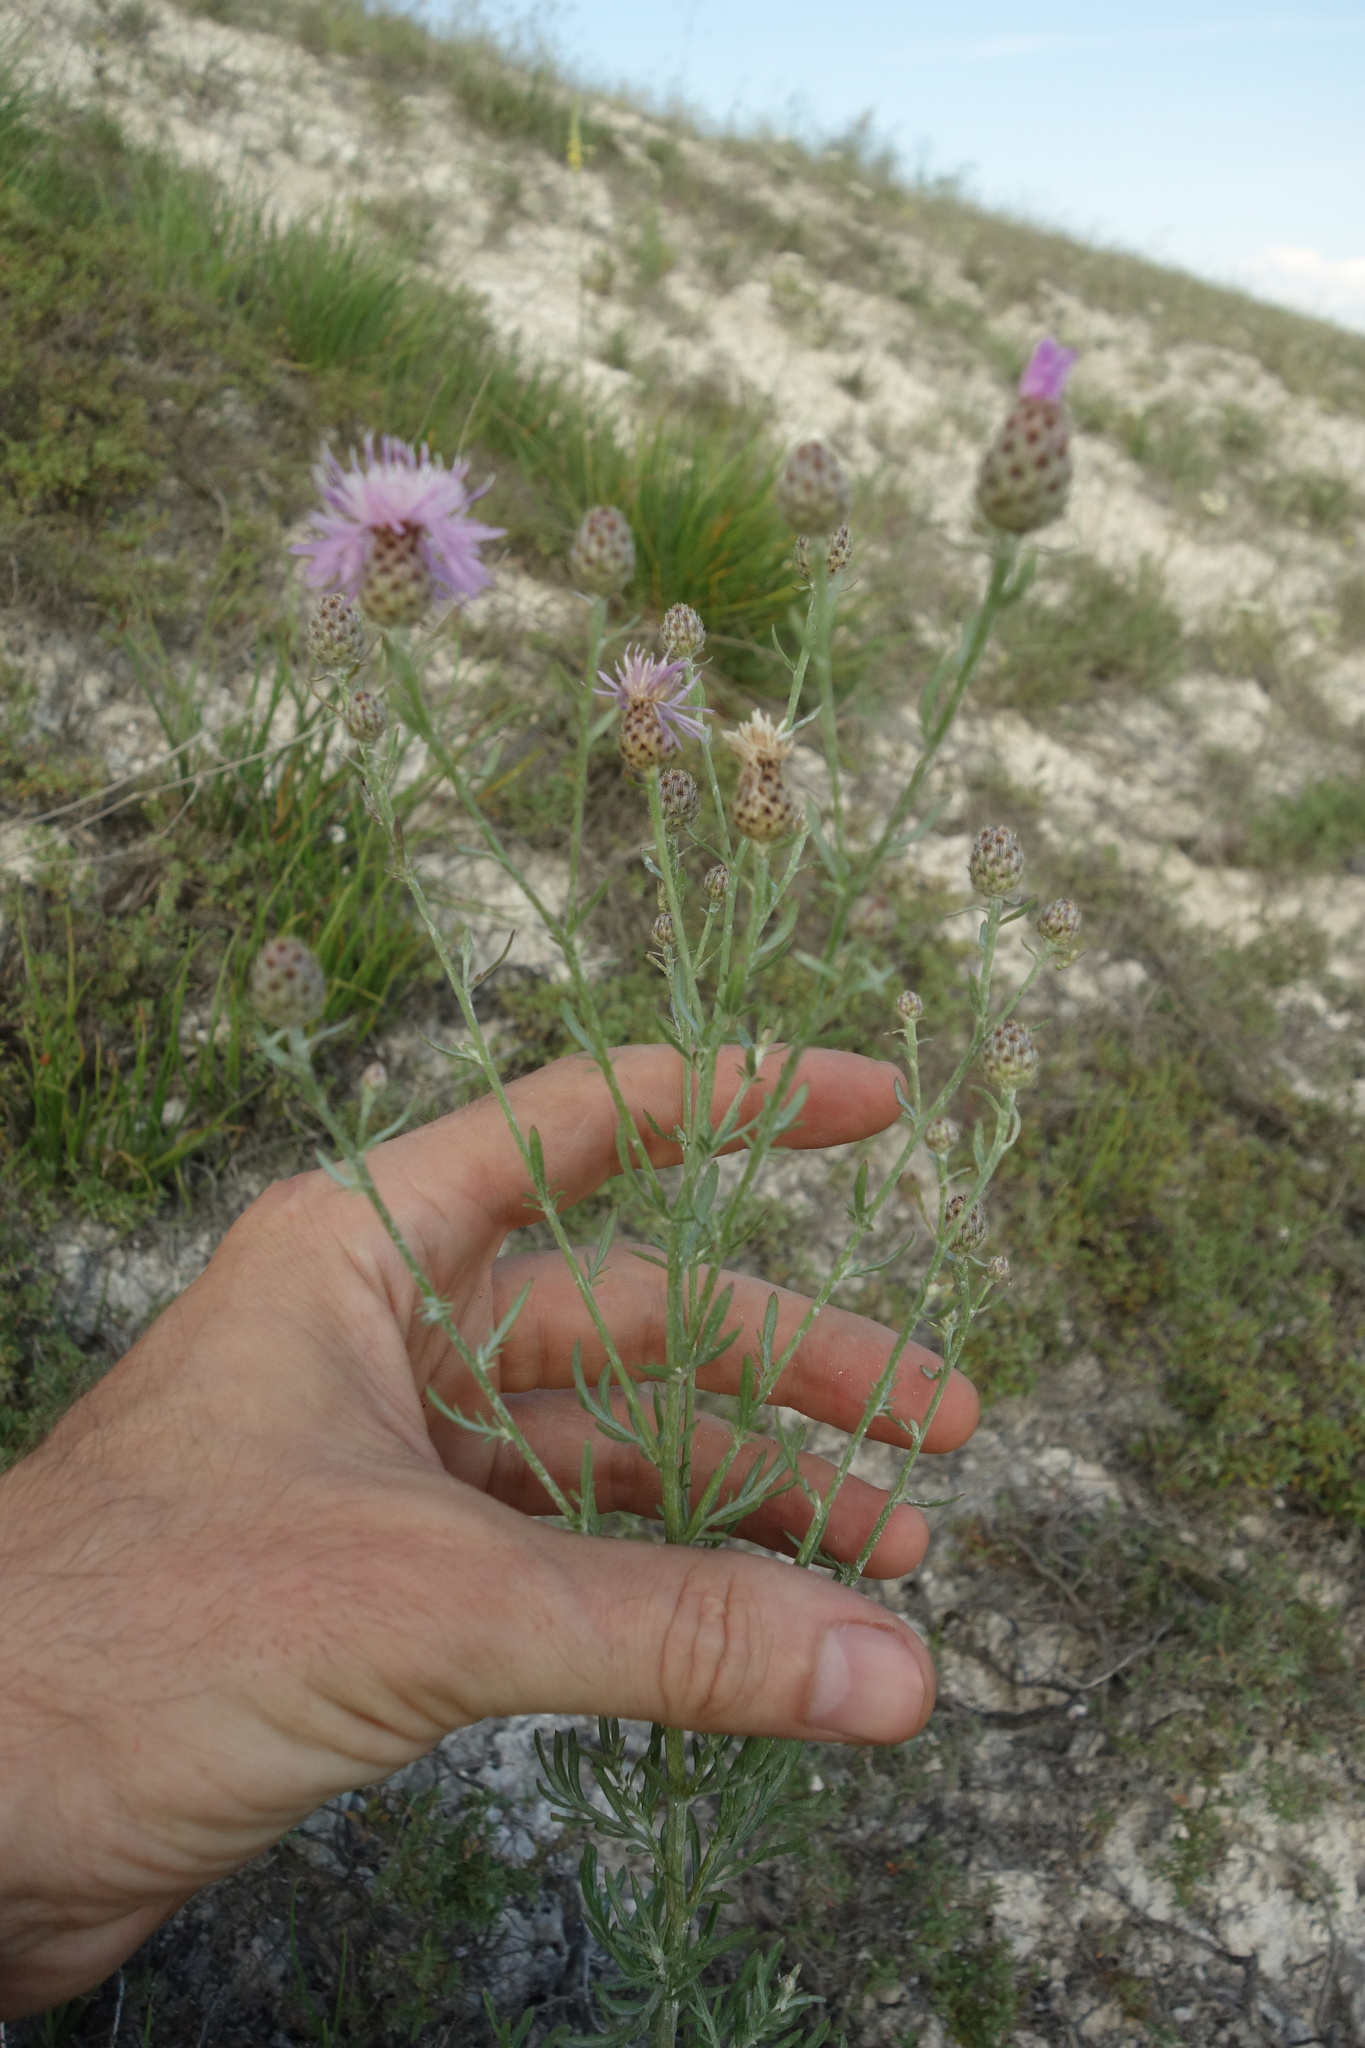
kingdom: Plantae
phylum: Tracheophyta
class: Magnoliopsida
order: Asterales
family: Asteraceae
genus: Centaurea
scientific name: Centaurea stoebe
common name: Spotted knapweed
